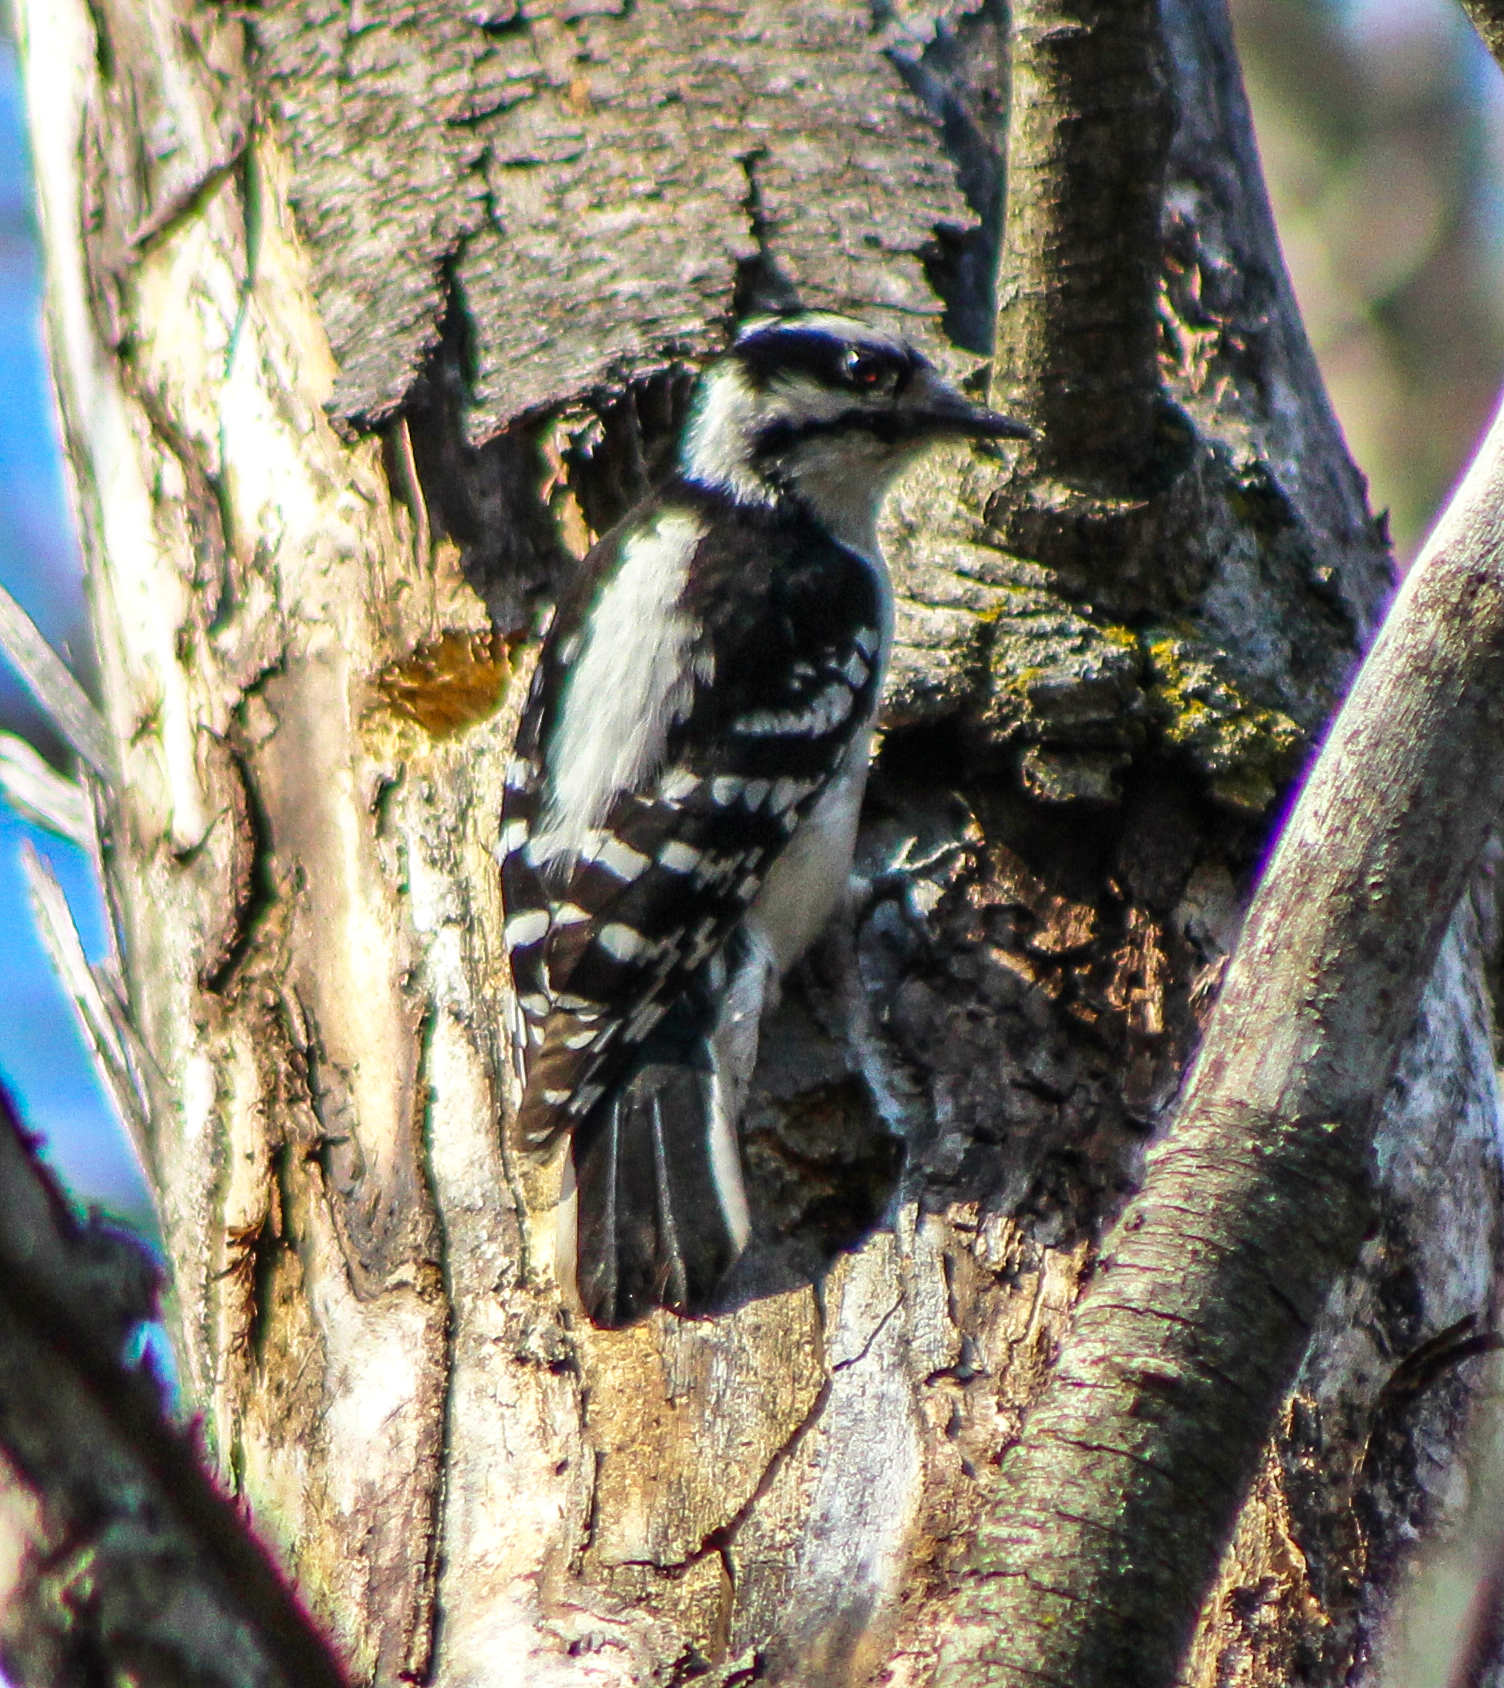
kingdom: Animalia
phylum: Chordata
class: Aves
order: Piciformes
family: Picidae
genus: Dryobates
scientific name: Dryobates pubescens
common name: Downy woodpecker
